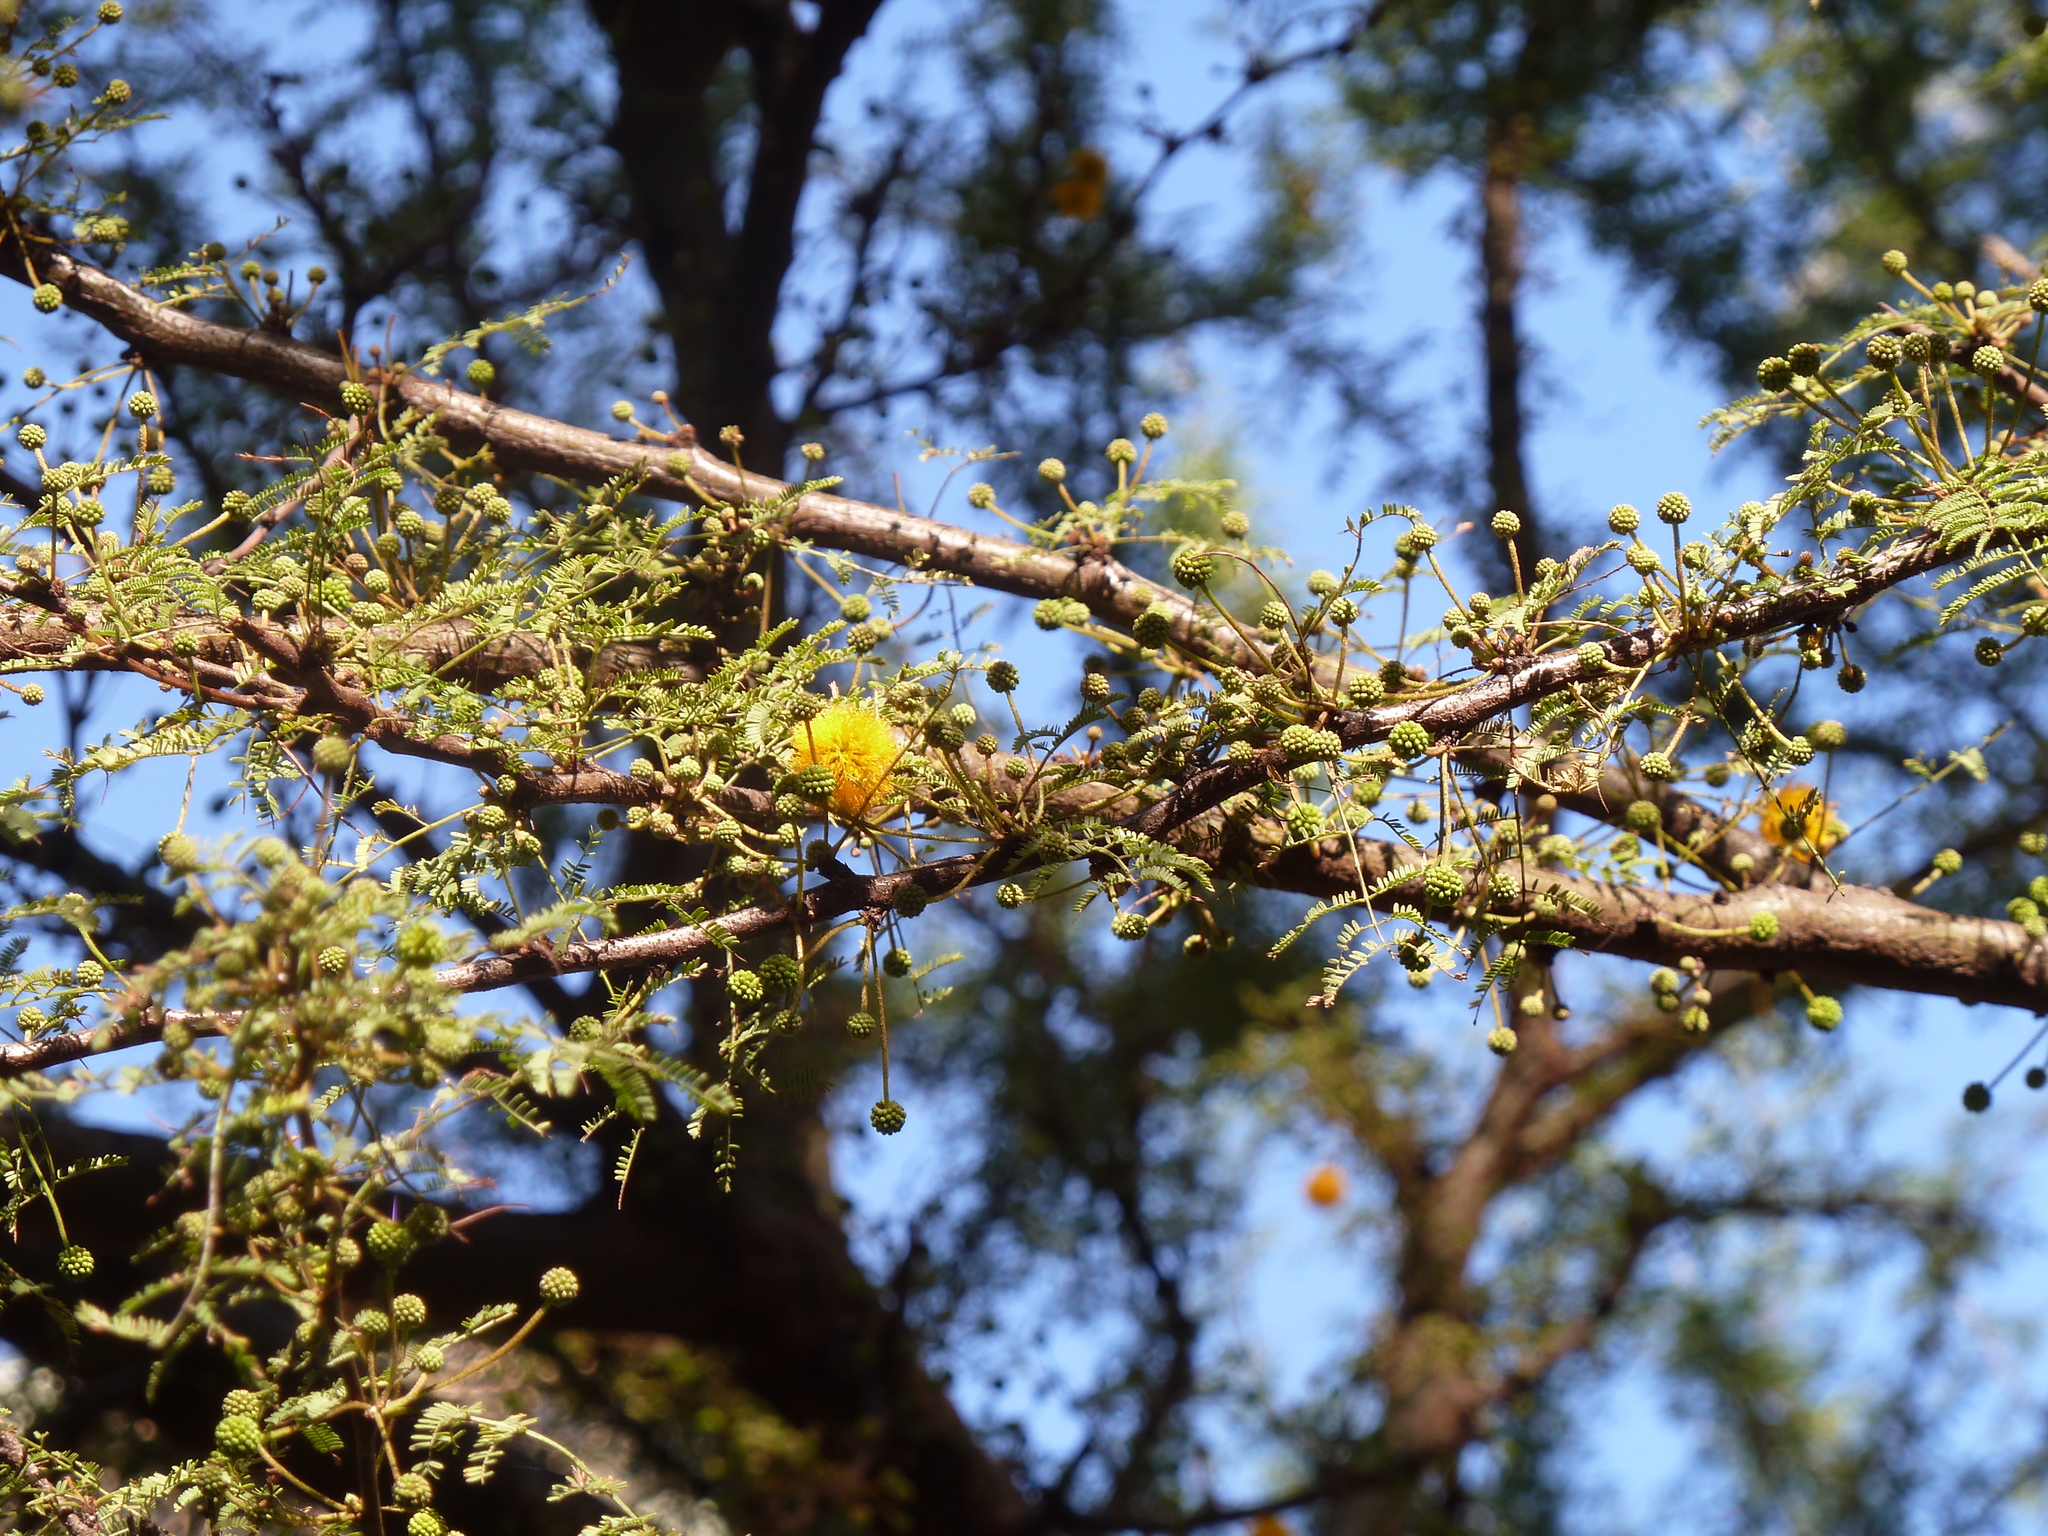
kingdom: Plantae
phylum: Tracheophyta
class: Magnoliopsida
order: Fabales
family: Fabaceae
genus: Vachellia
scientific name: Vachellia caven
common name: Roman cassie
